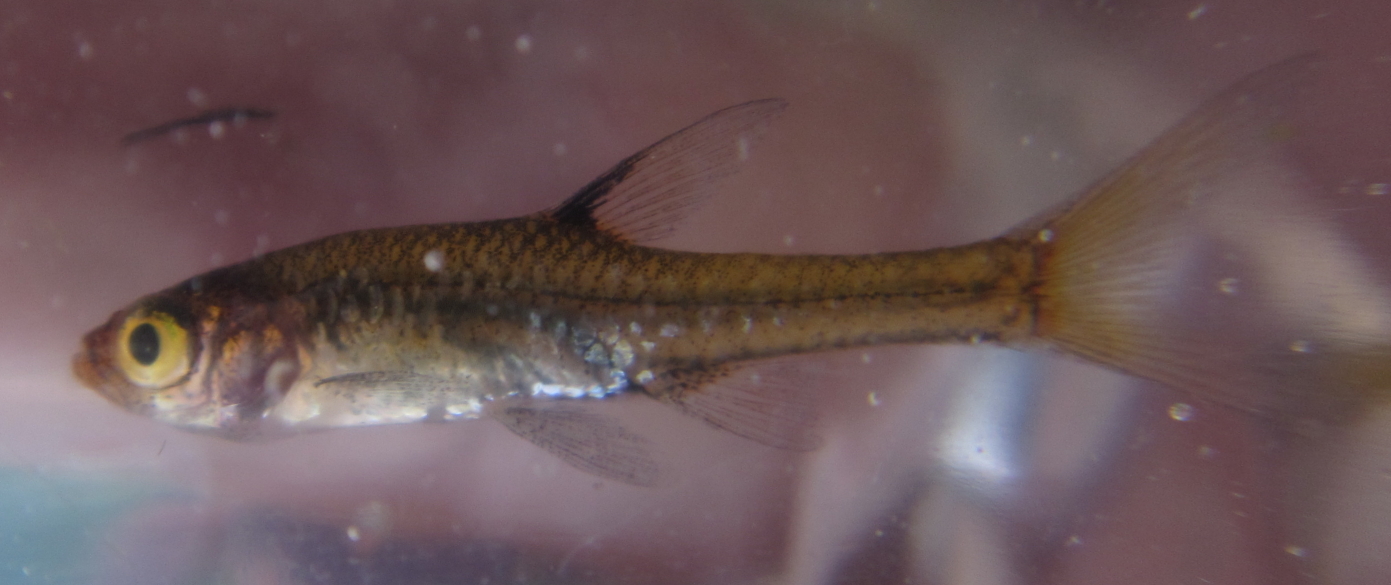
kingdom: Animalia
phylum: Chordata
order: Cypriniformes
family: Cyprinidae
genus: Coptostomabarbus
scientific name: Coptostomabarbus wittei
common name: Upjaw barb
